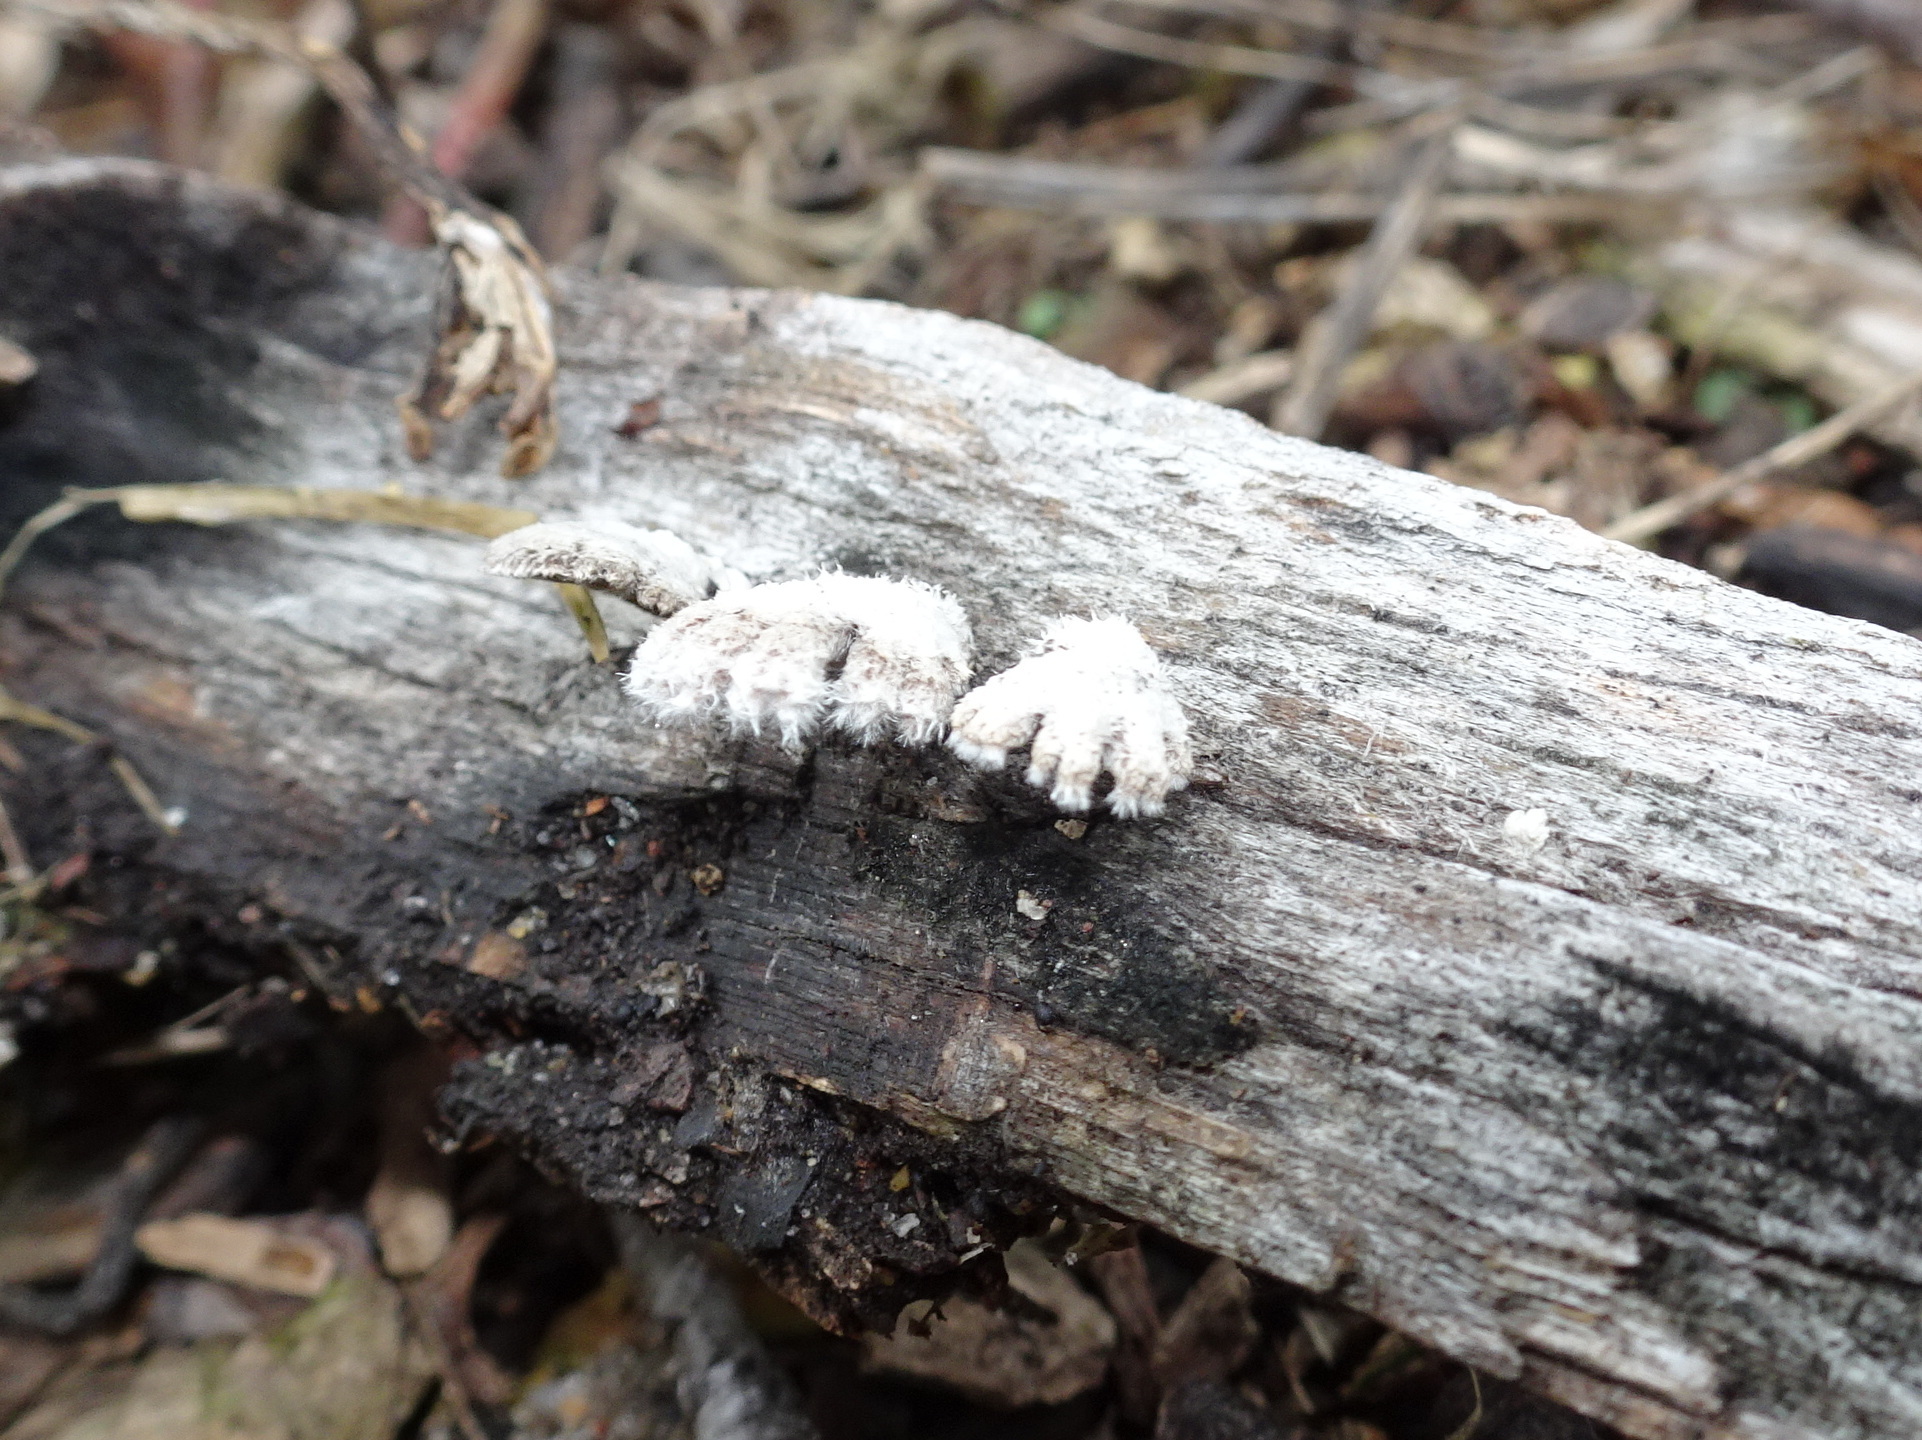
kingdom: Fungi
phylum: Basidiomycota
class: Agaricomycetes
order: Agaricales
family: Schizophyllaceae
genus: Schizophyllum
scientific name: Schizophyllum commune
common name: Common porecrust
